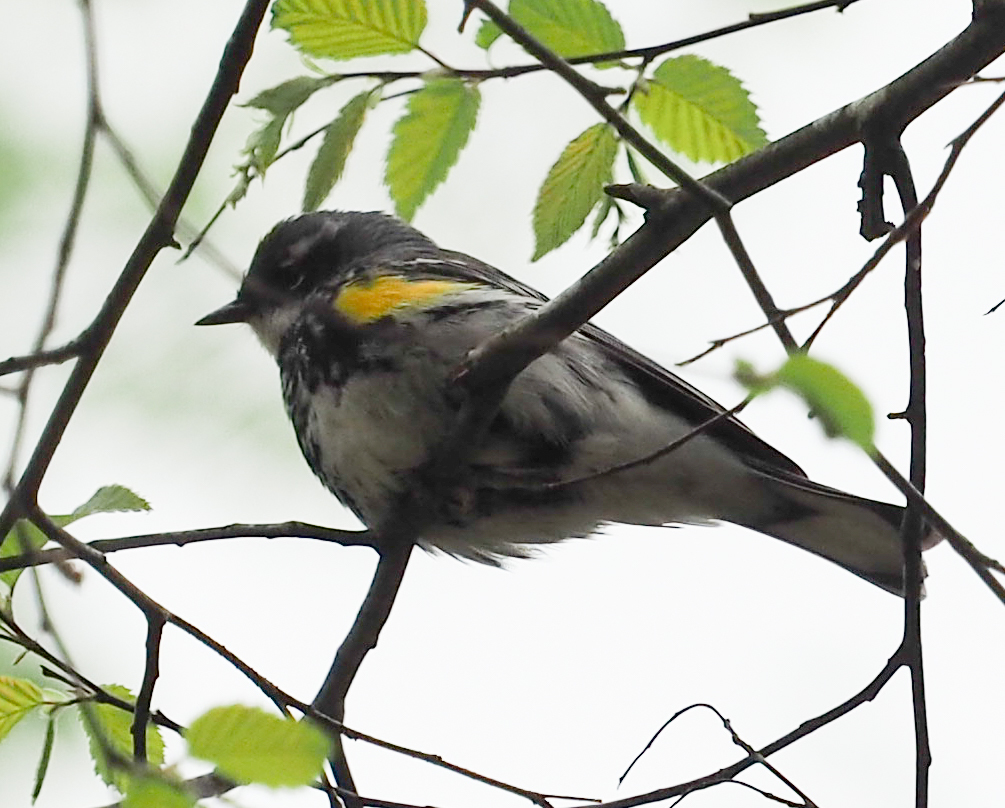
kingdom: Animalia
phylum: Chordata
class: Aves
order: Passeriformes
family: Parulidae
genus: Setophaga
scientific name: Setophaga coronata
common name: Myrtle warbler
